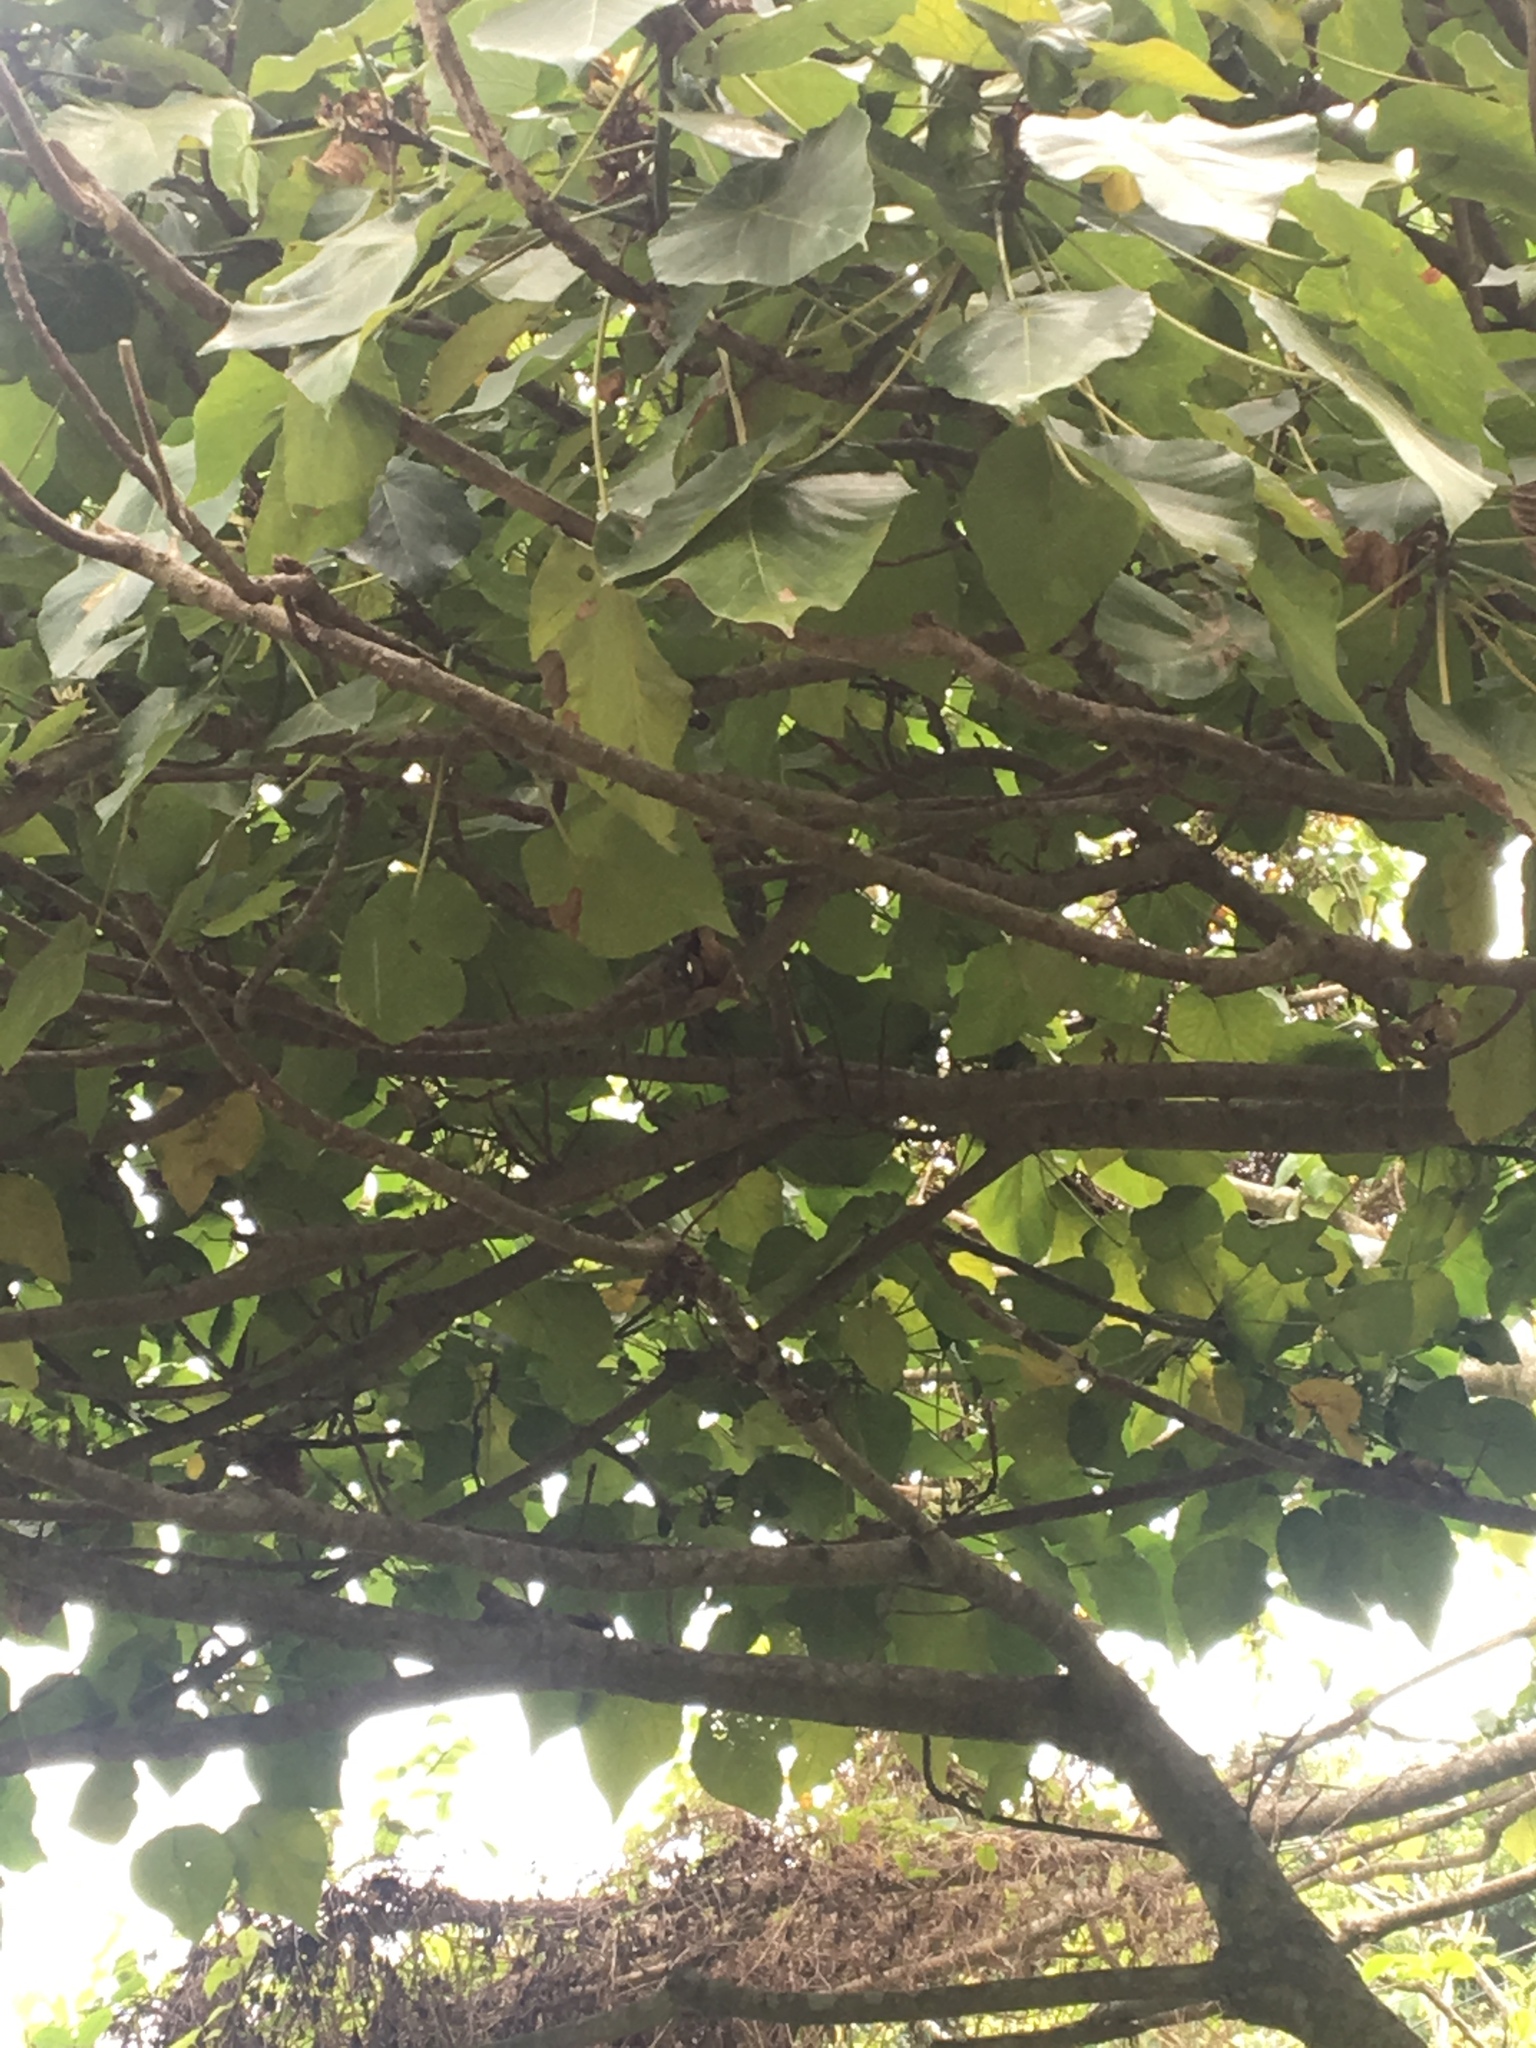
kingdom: Plantae
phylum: Tracheophyta
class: Magnoliopsida
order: Malpighiales
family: Euphorbiaceae
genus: Macaranga
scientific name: Macaranga tanarius
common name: Parasol leaf tree
